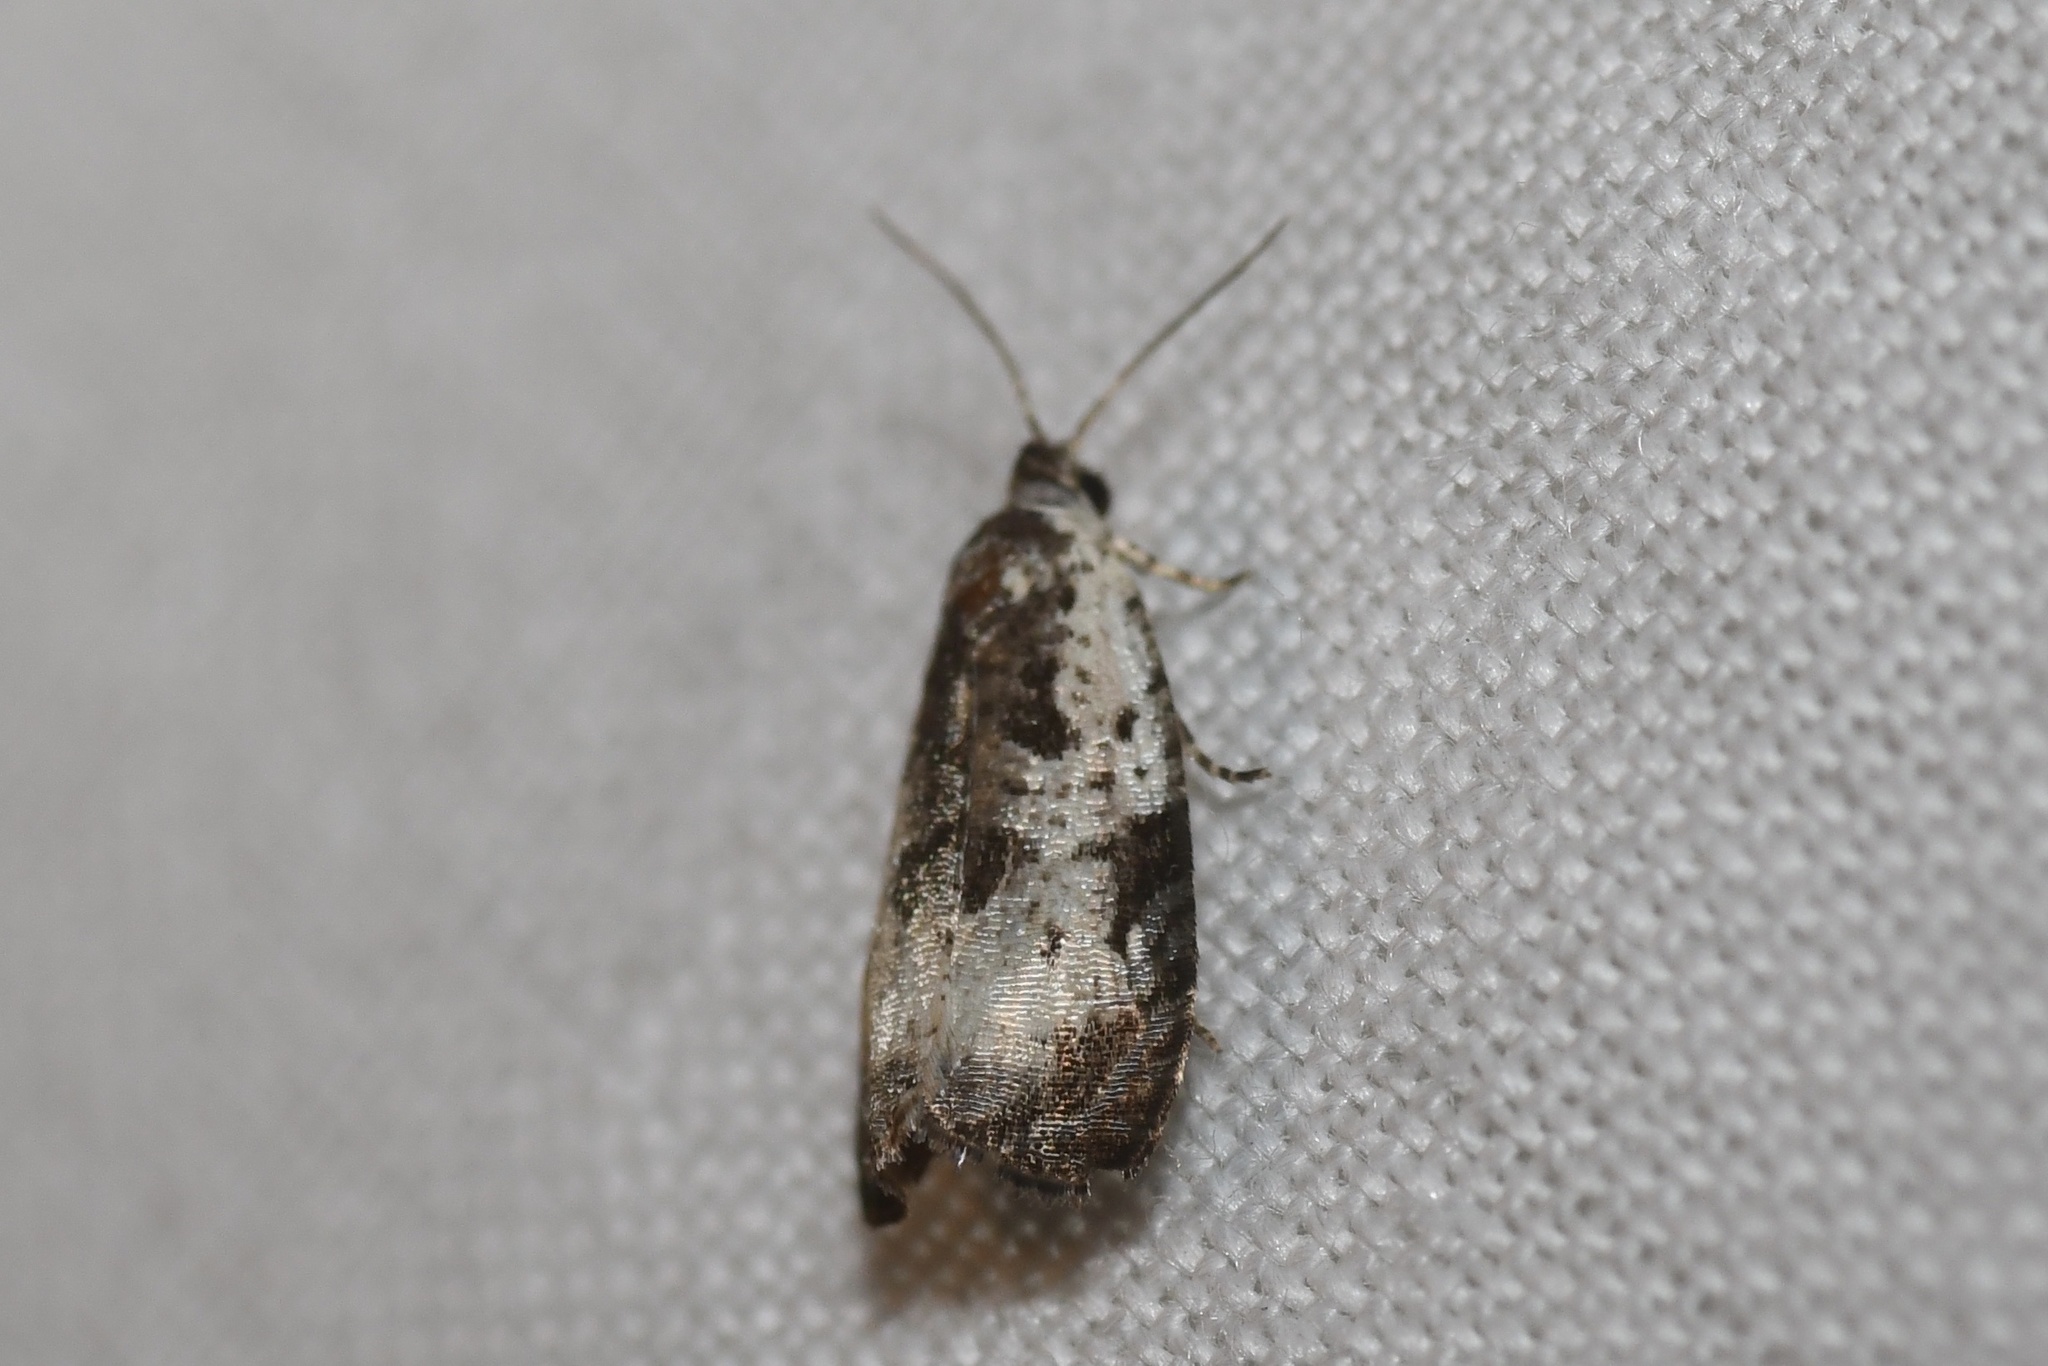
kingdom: Animalia
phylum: Arthropoda
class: Insecta
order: Lepidoptera
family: Tortricidae
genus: Olethreutes
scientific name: Olethreutes malana
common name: Malana leafroller moth
